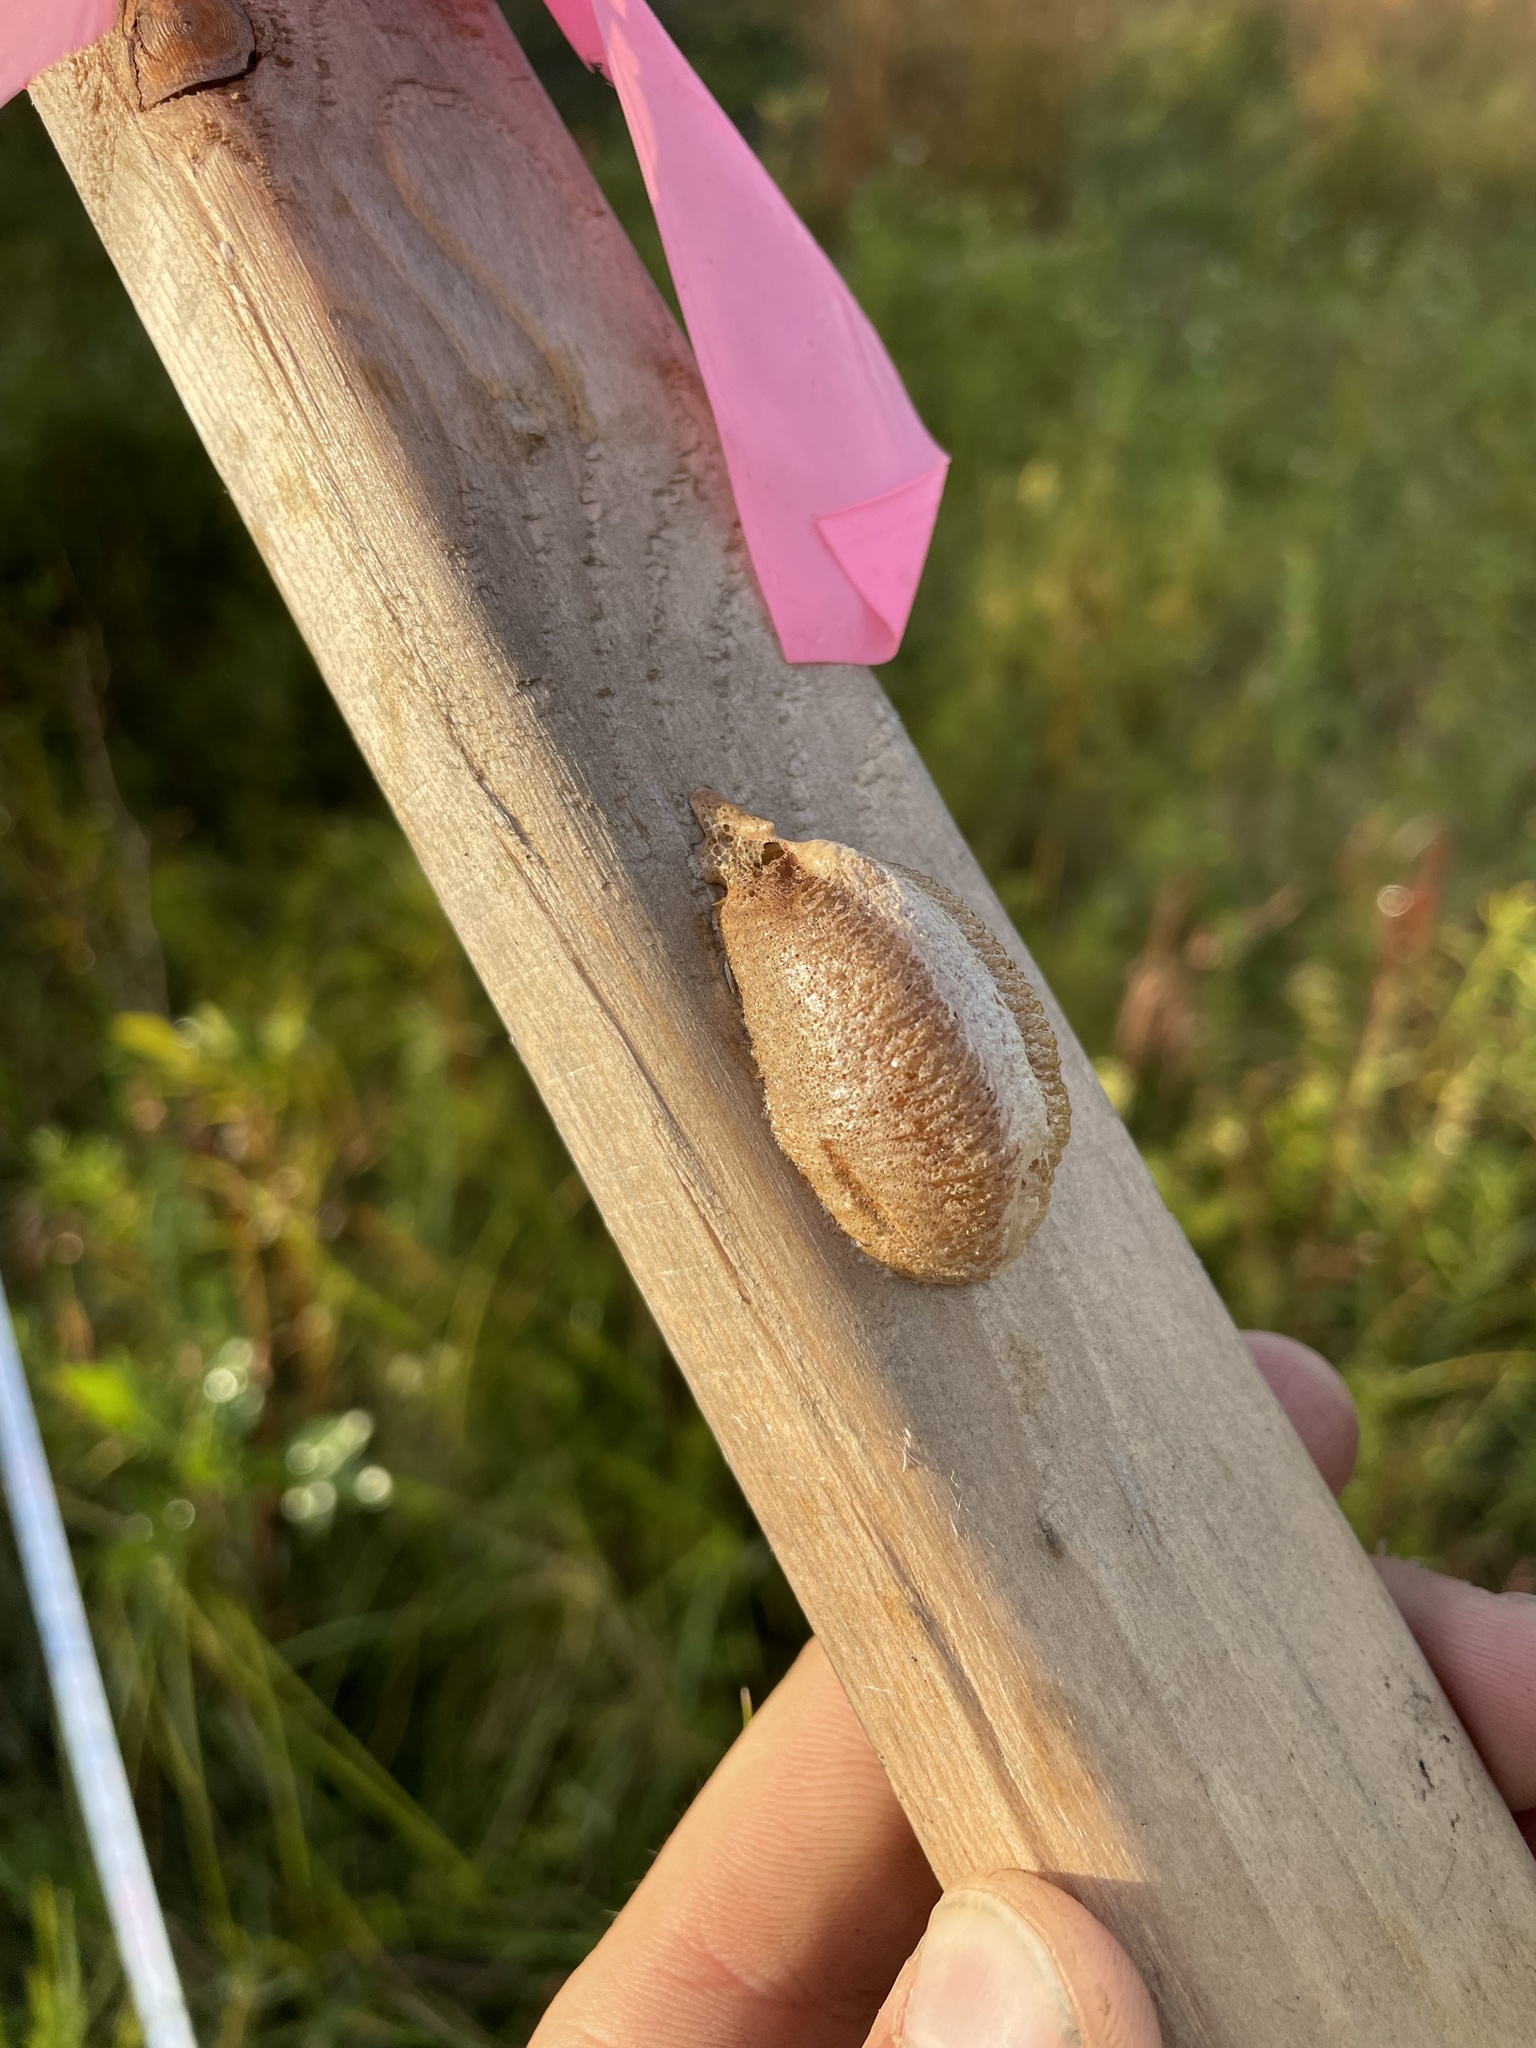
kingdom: Animalia
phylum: Arthropoda
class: Insecta
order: Mantodea
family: Mantidae
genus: Mantis
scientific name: Mantis religiosa
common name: Praying mantis
